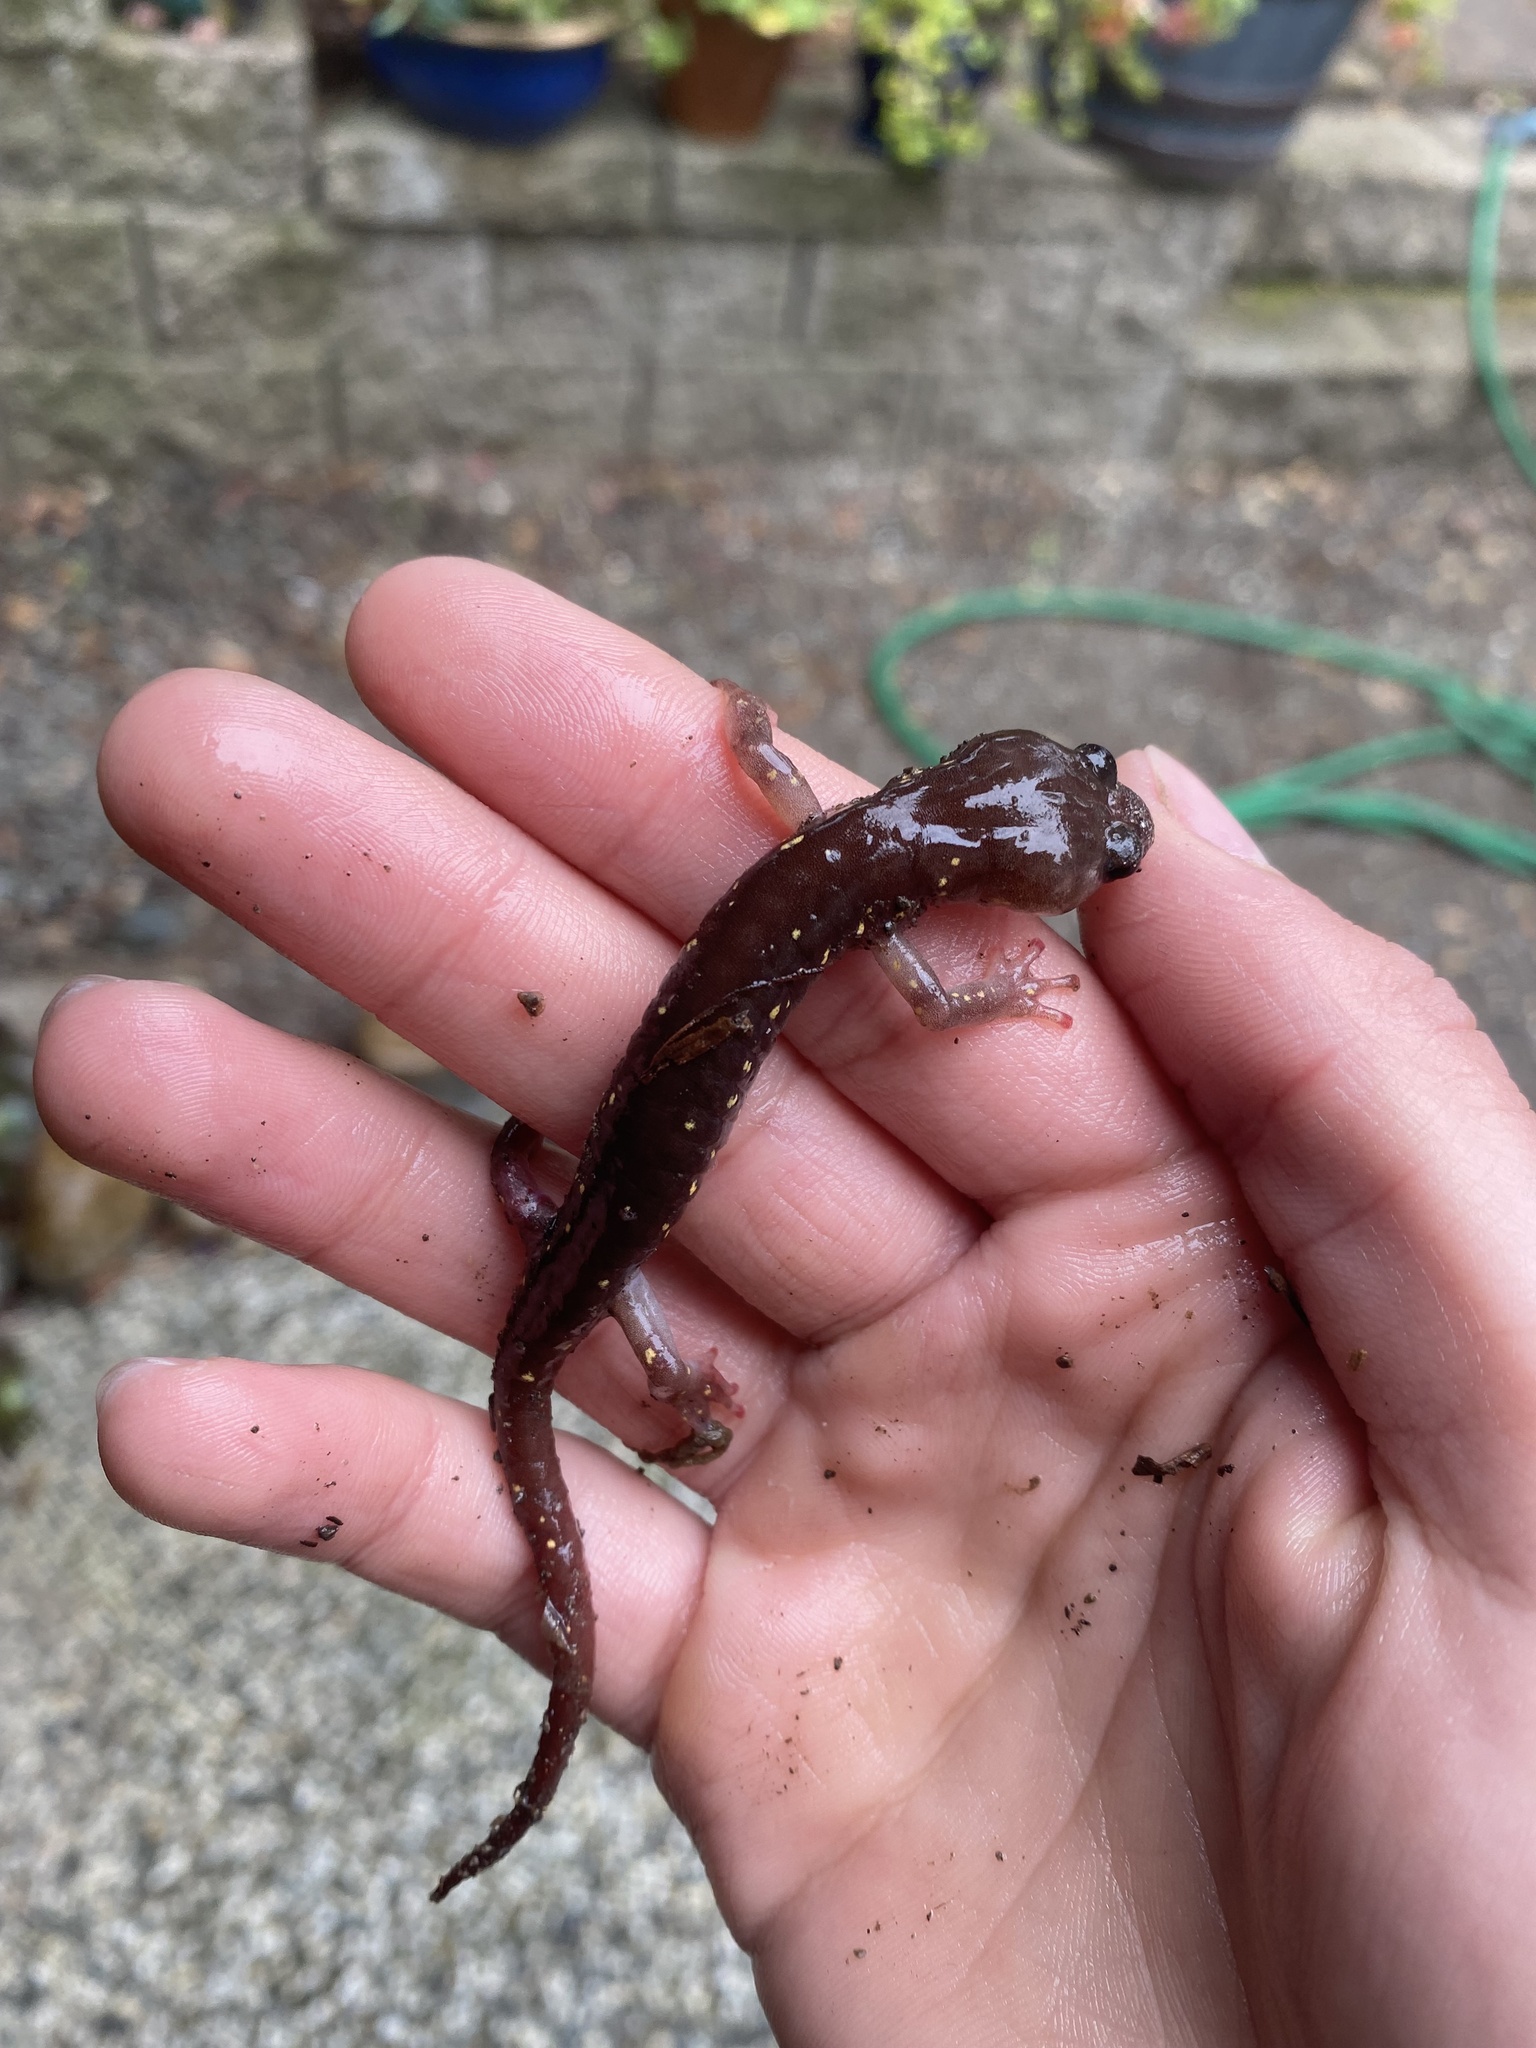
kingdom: Animalia
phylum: Chordata
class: Amphibia
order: Caudata
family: Plethodontidae
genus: Aneides
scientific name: Aneides lugubris
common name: Arboreal salamander
